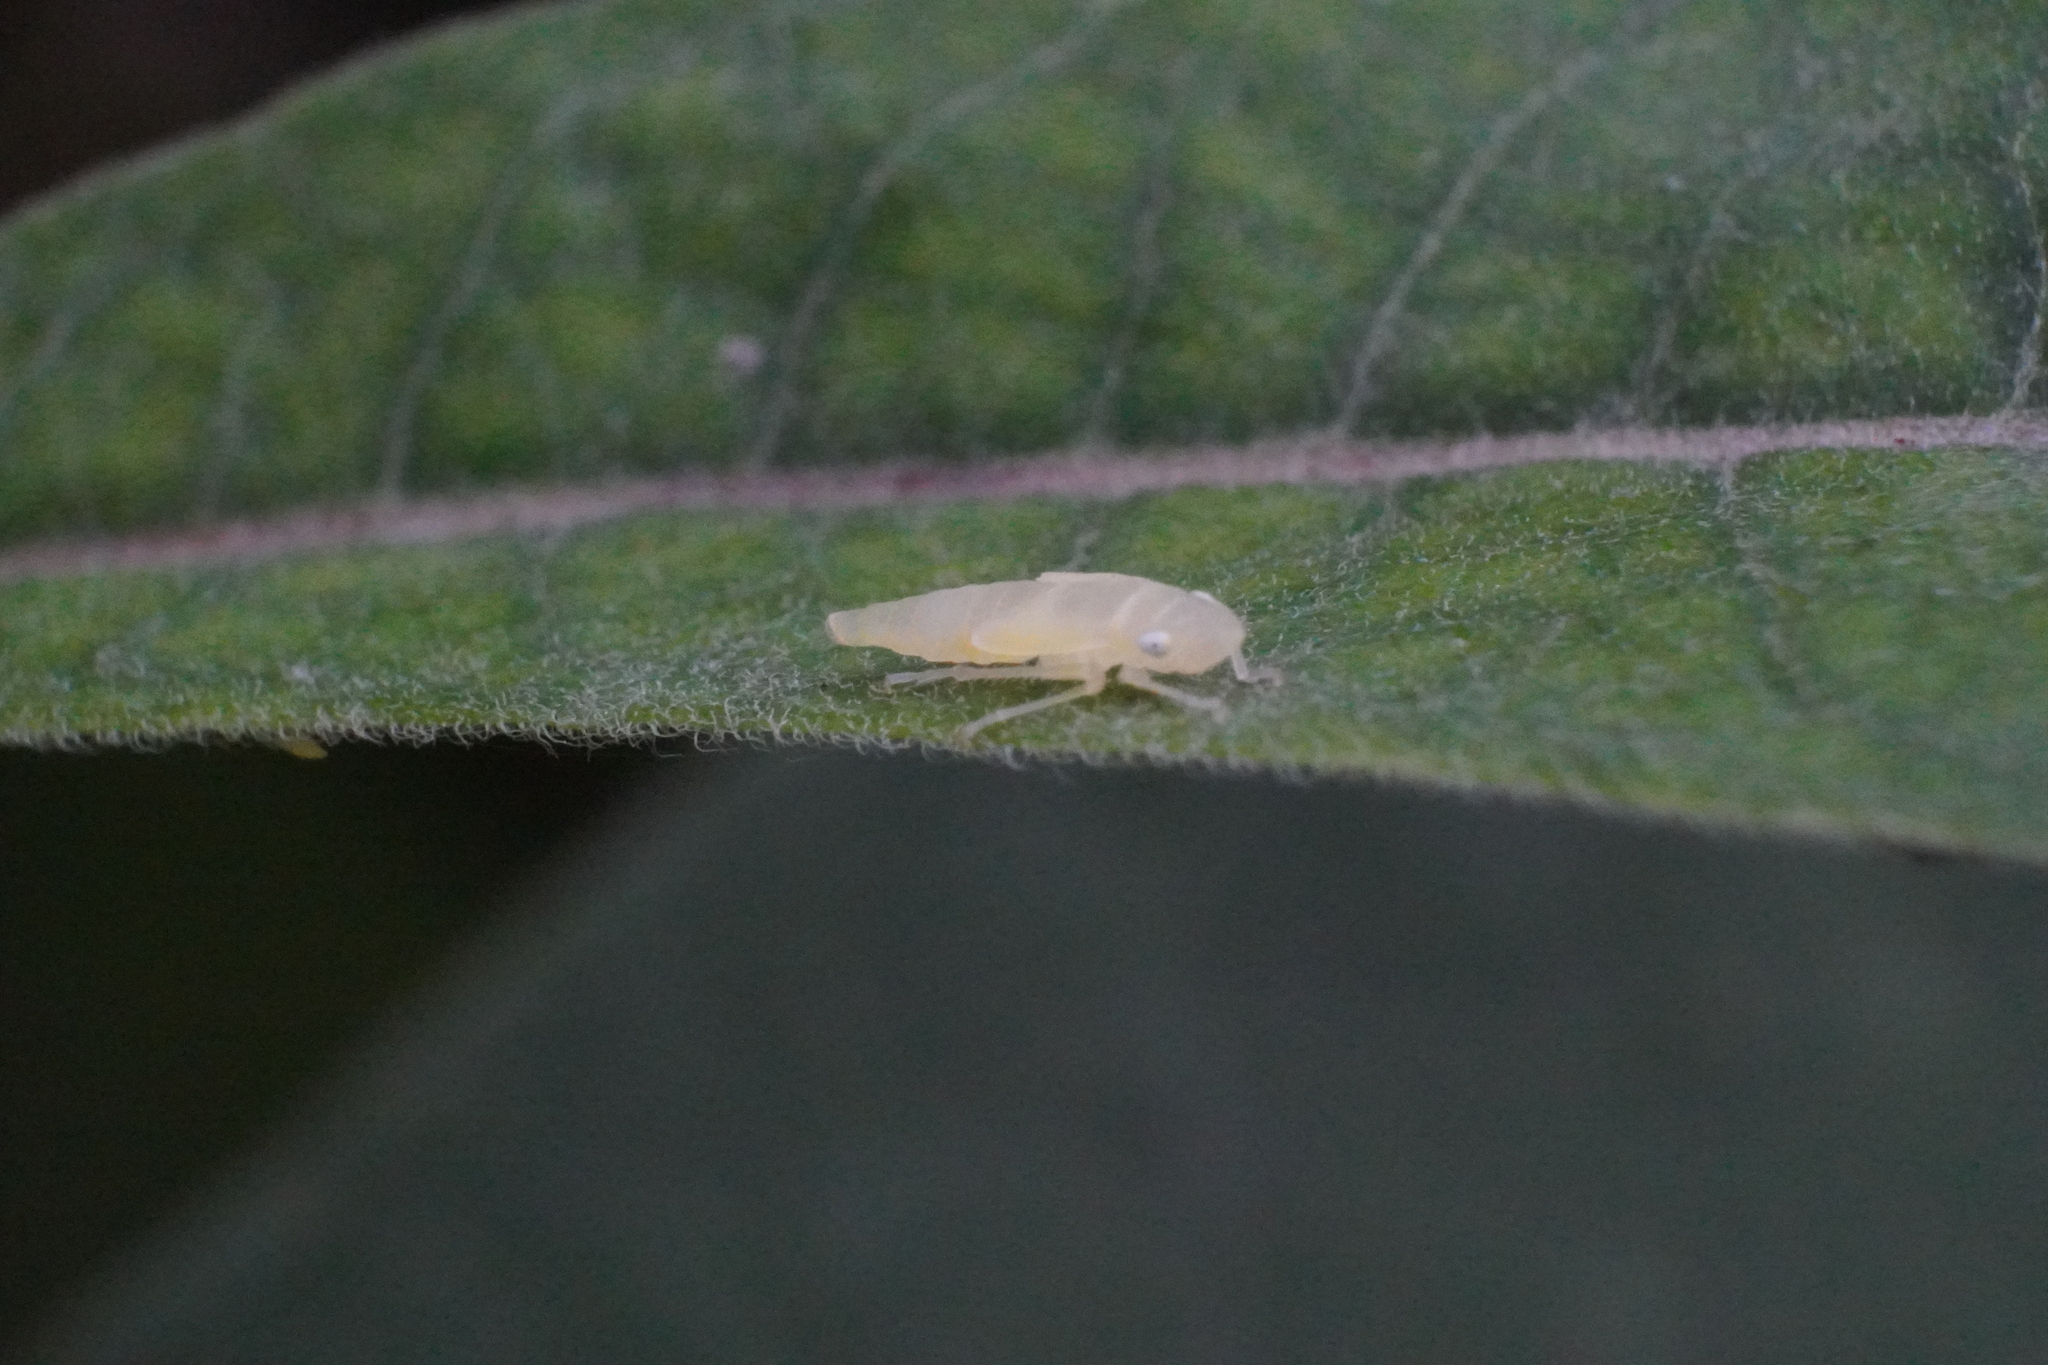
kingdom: Animalia
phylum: Arthropoda
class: Insecta
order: Hemiptera
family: Cicadellidae
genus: Graphocephala
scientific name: Graphocephala fennahi
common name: Rhododendron leafhopper
